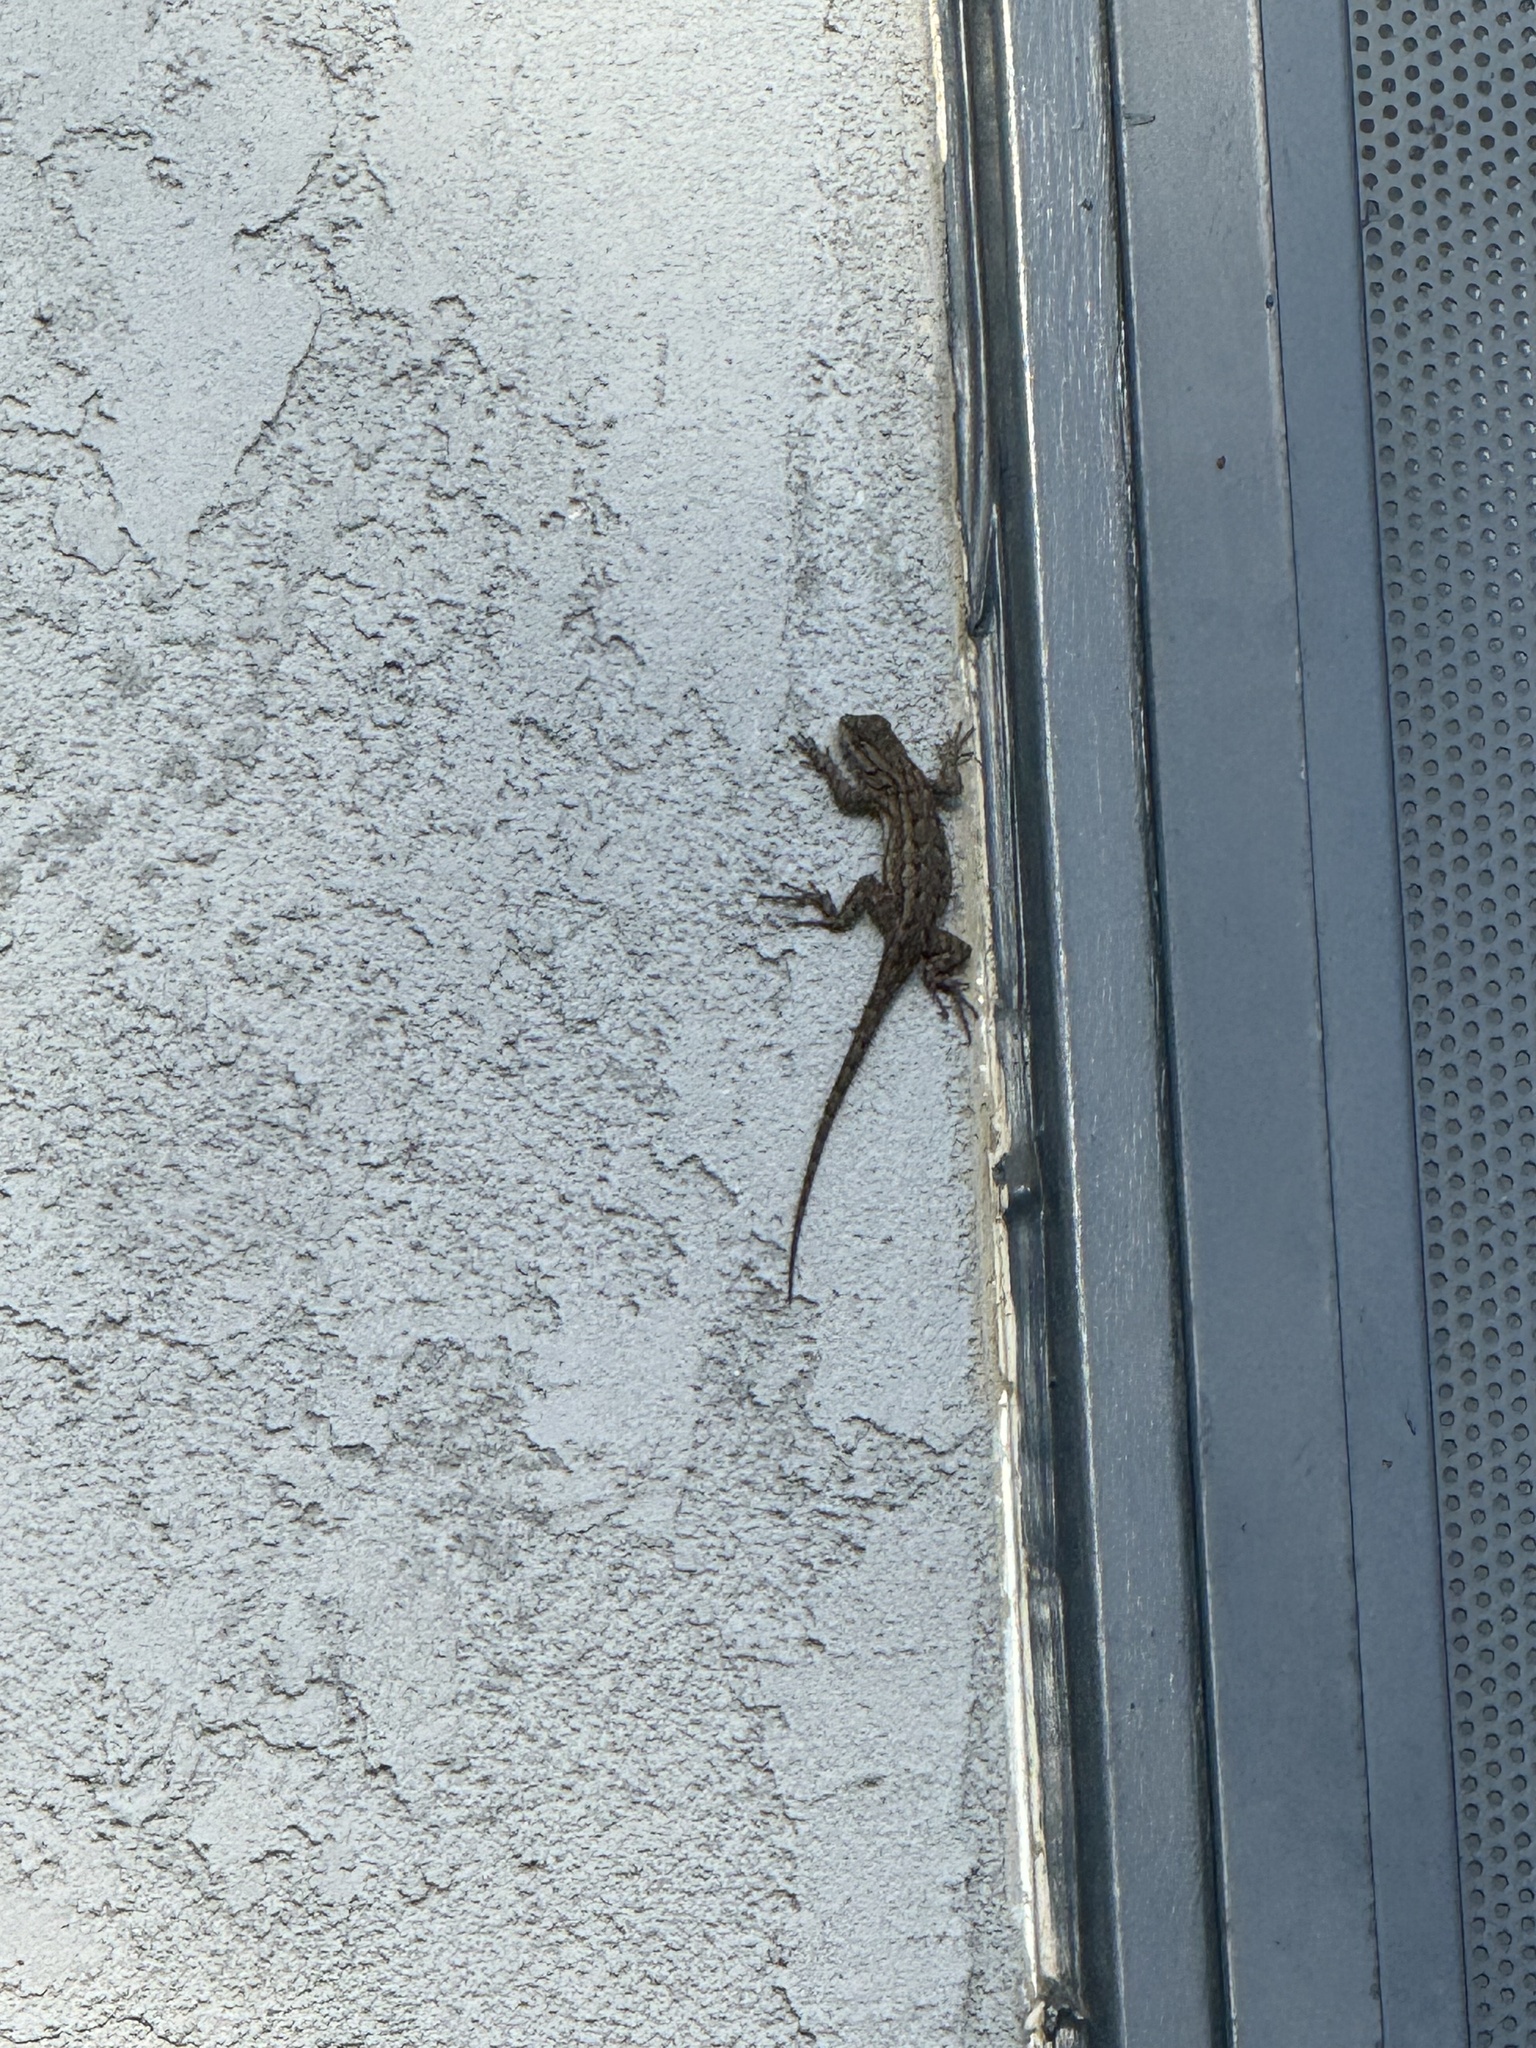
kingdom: Animalia
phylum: Chordata
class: Squamata
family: Phrynosomatidae
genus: Sceloporus
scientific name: Sceloporus occidentalis
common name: Western fence lizard
